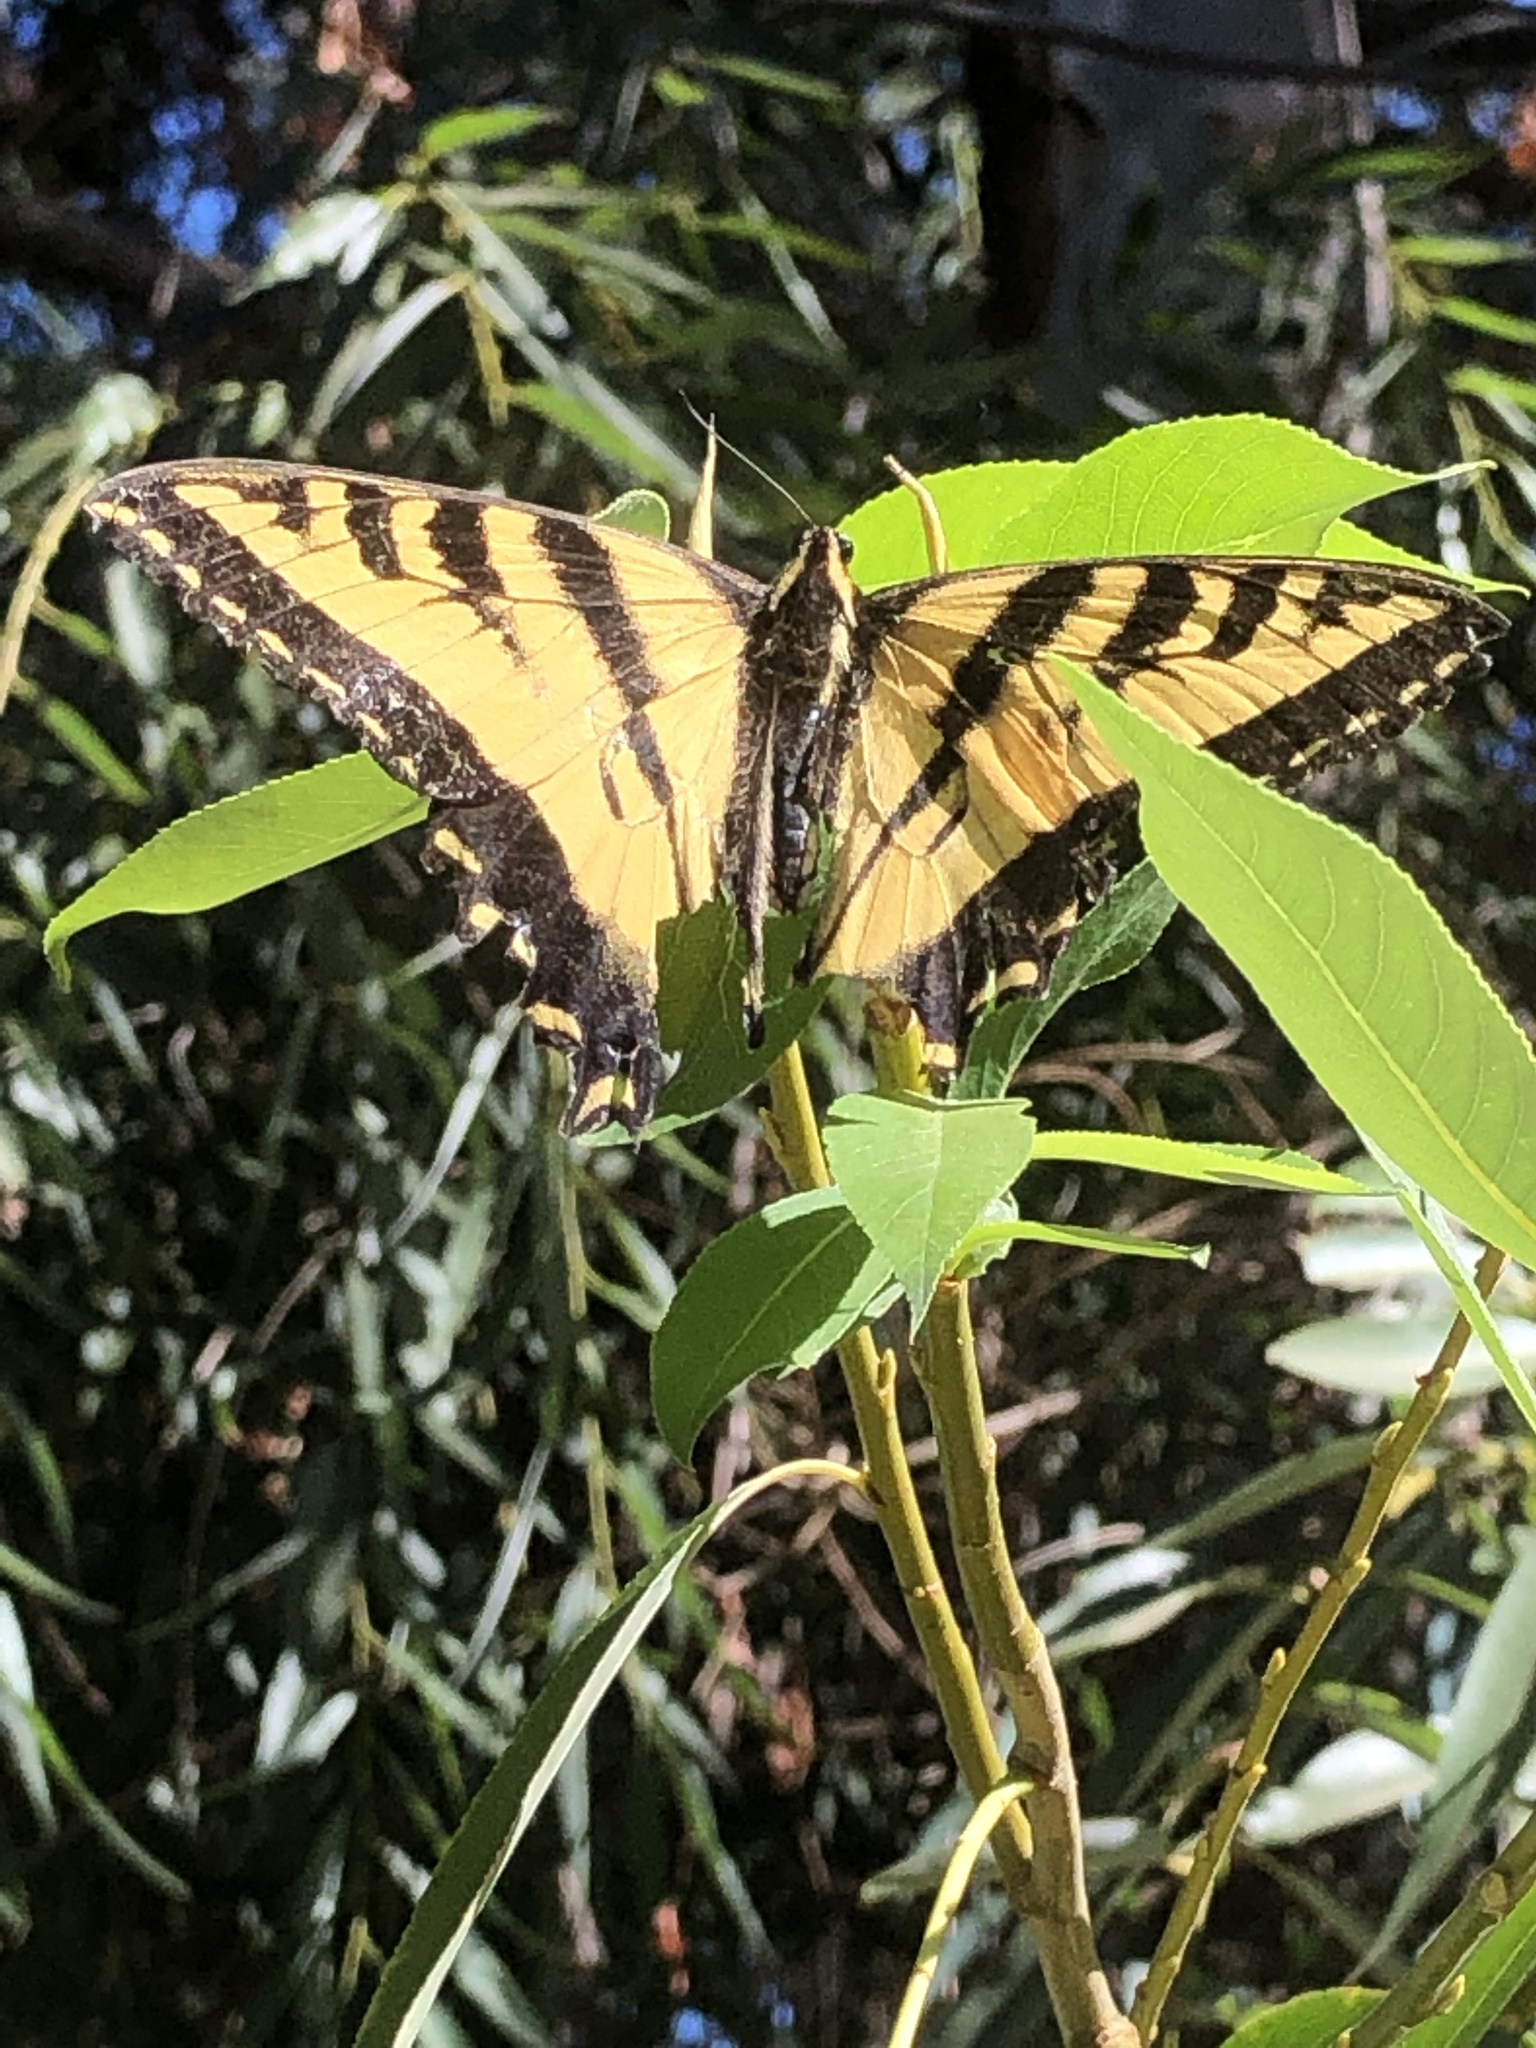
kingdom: Animalia
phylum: Arthropoda
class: Insecta
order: Lepidoptera
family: Papilionidae
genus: Papilio
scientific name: Papilio rutulus
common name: Western tiger swallowtail
